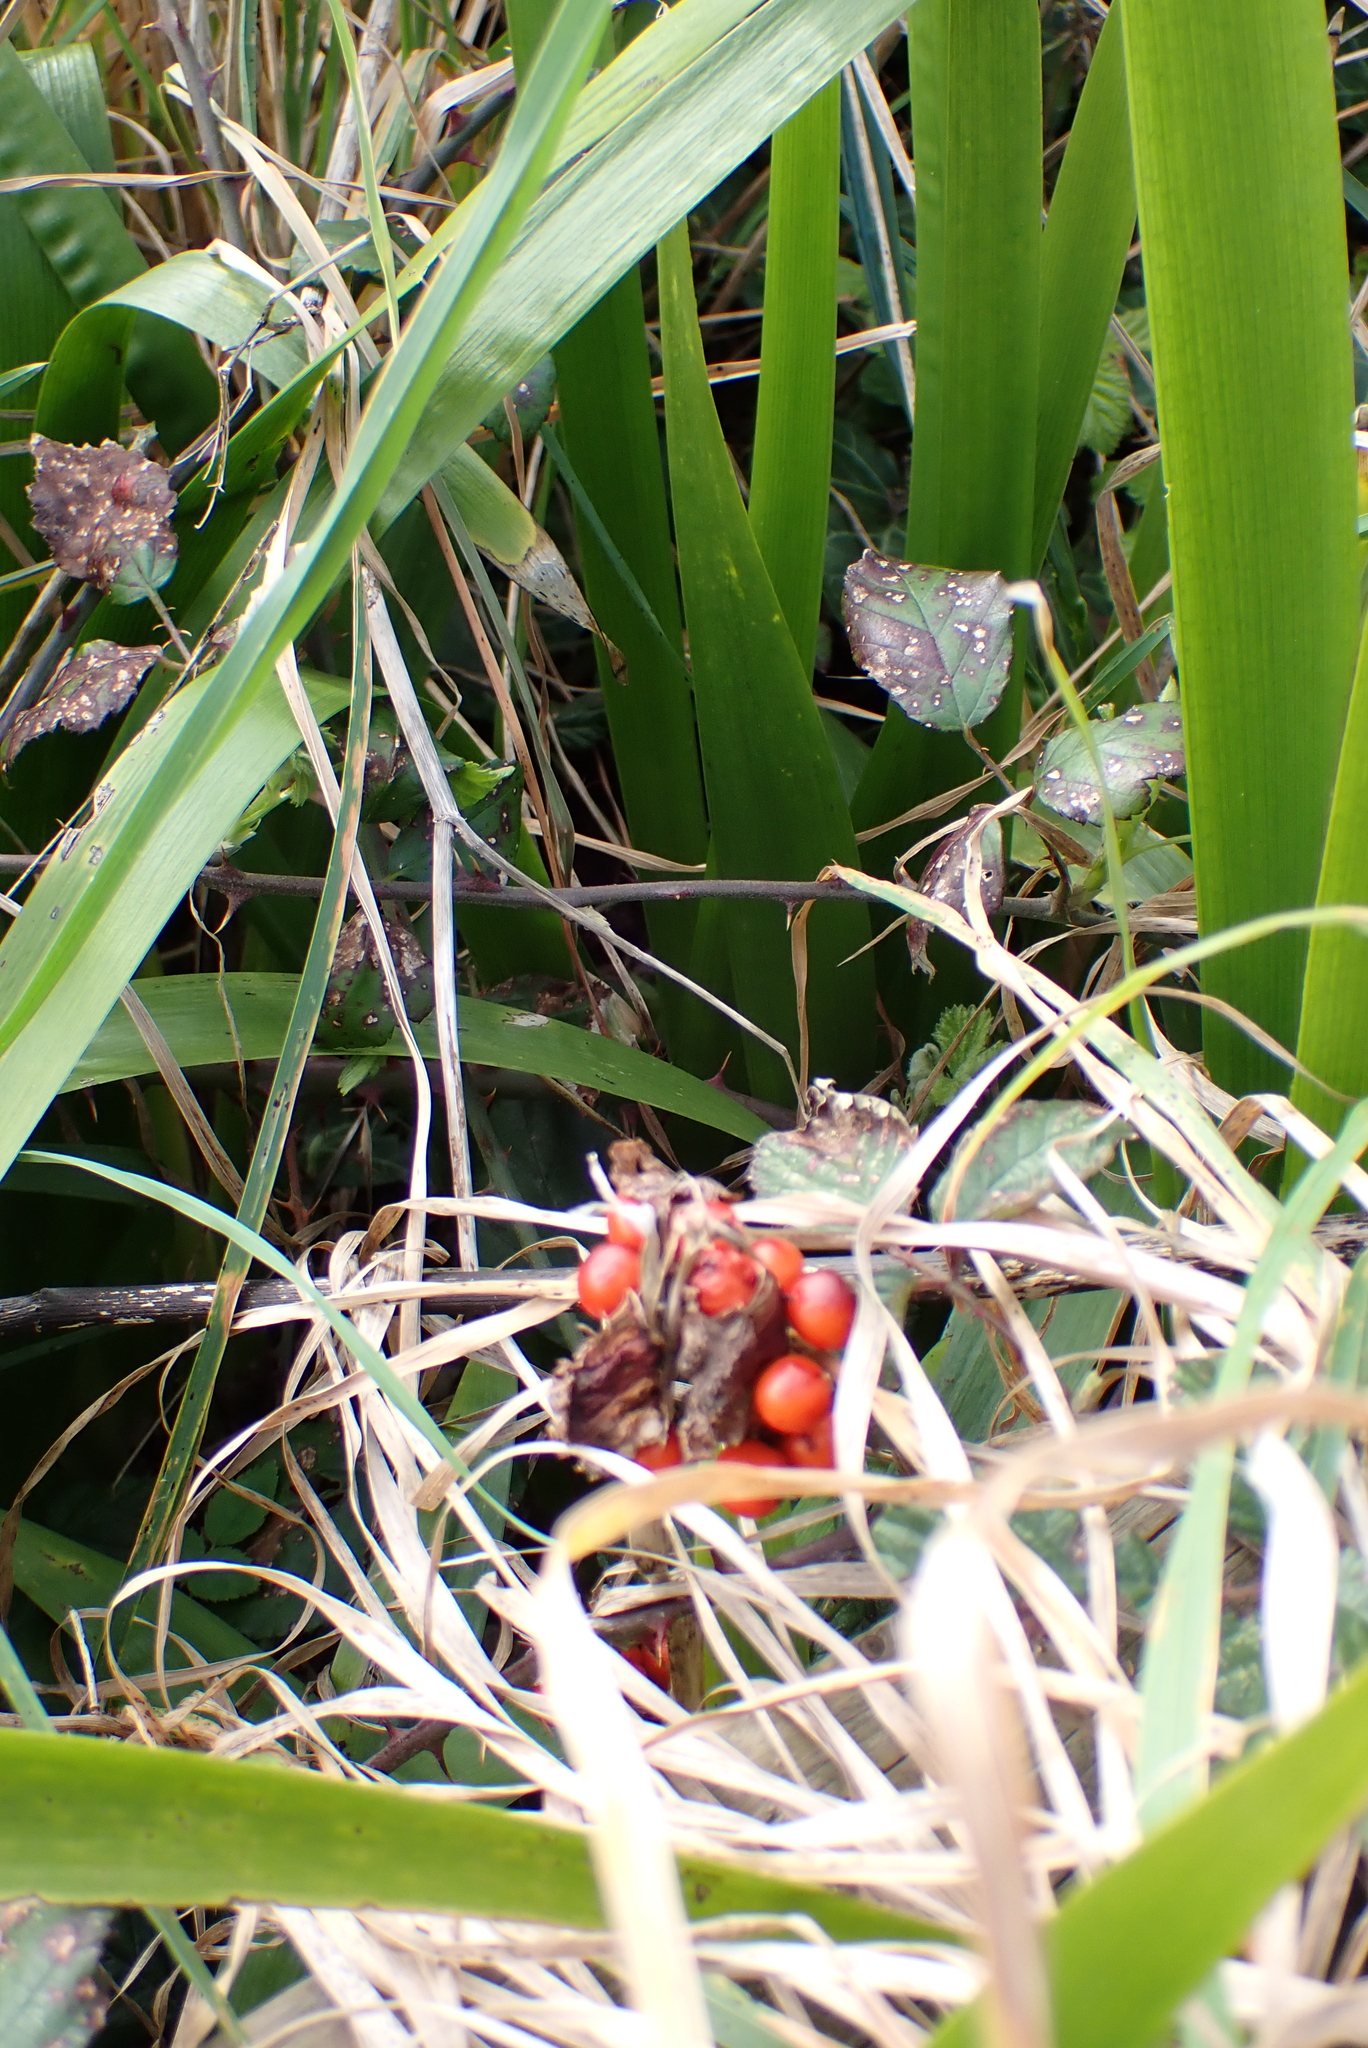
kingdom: Plantae
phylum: Tracheophyta
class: Liliopsida
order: Asparagales
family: Iridaceae
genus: Iris
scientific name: Iris foetidissima
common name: Stinking iris
